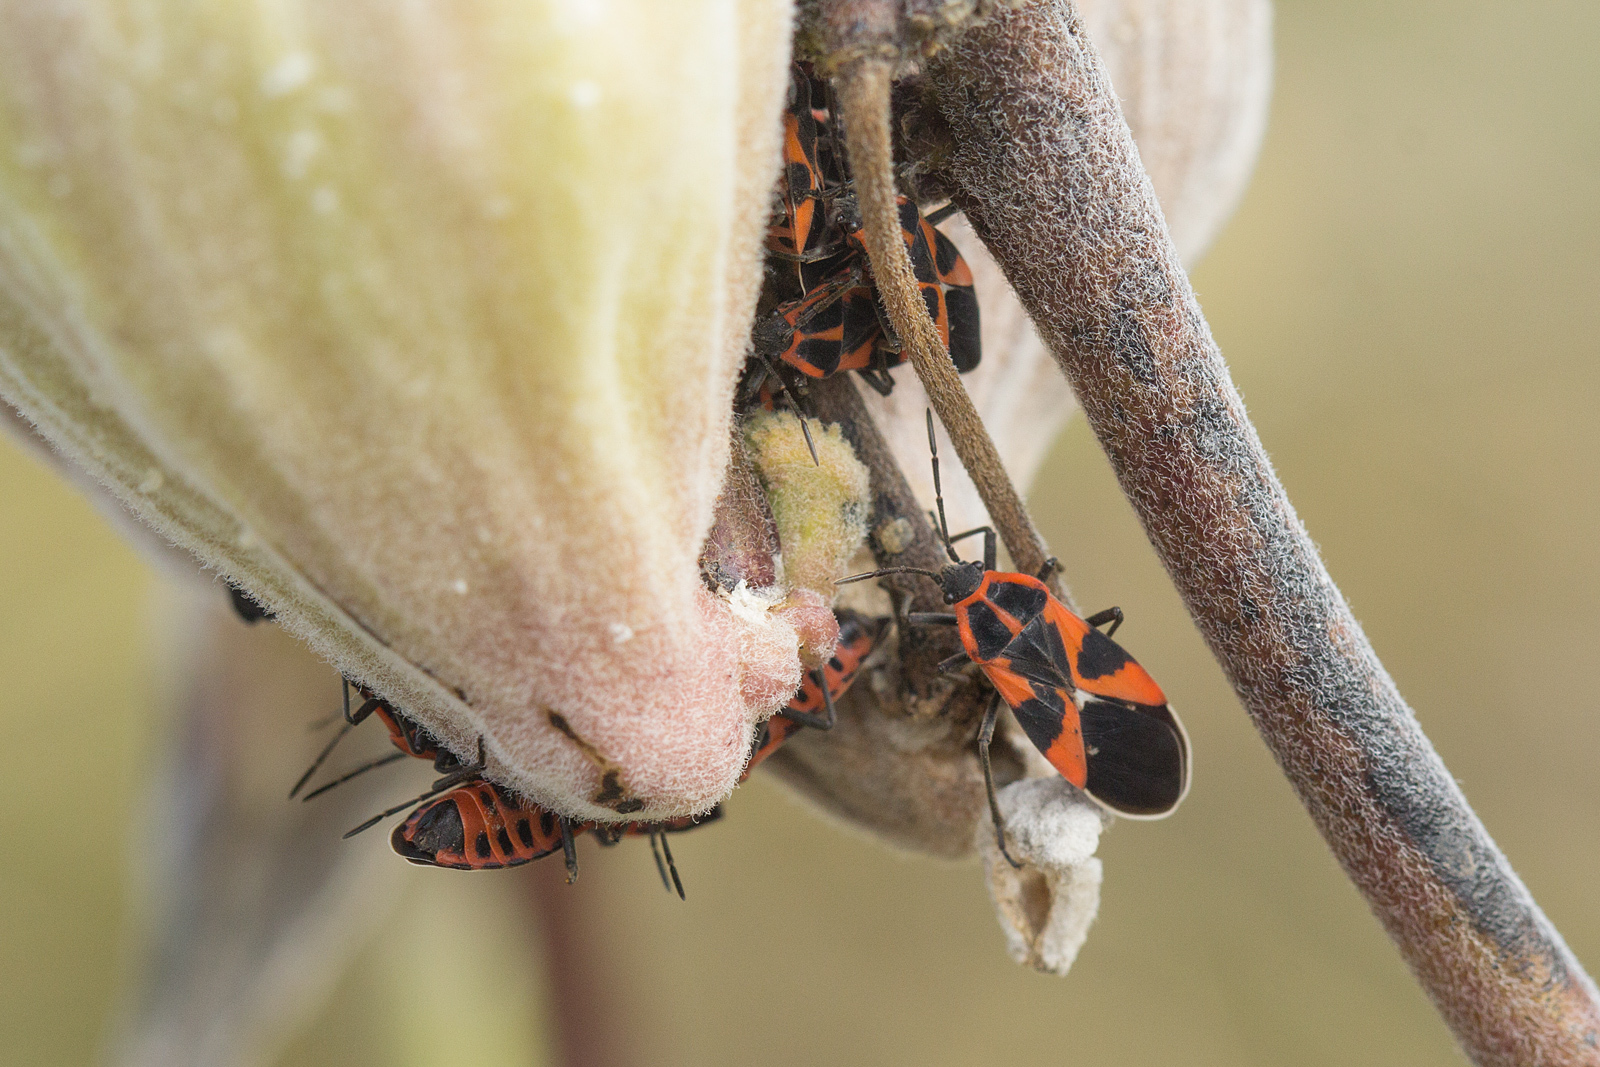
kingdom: Animalia
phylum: Arthropoda
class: Insecta
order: Hemiptera
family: Lygaeidae
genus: Tropidothorax
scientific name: Tropidothorax leucopterus
